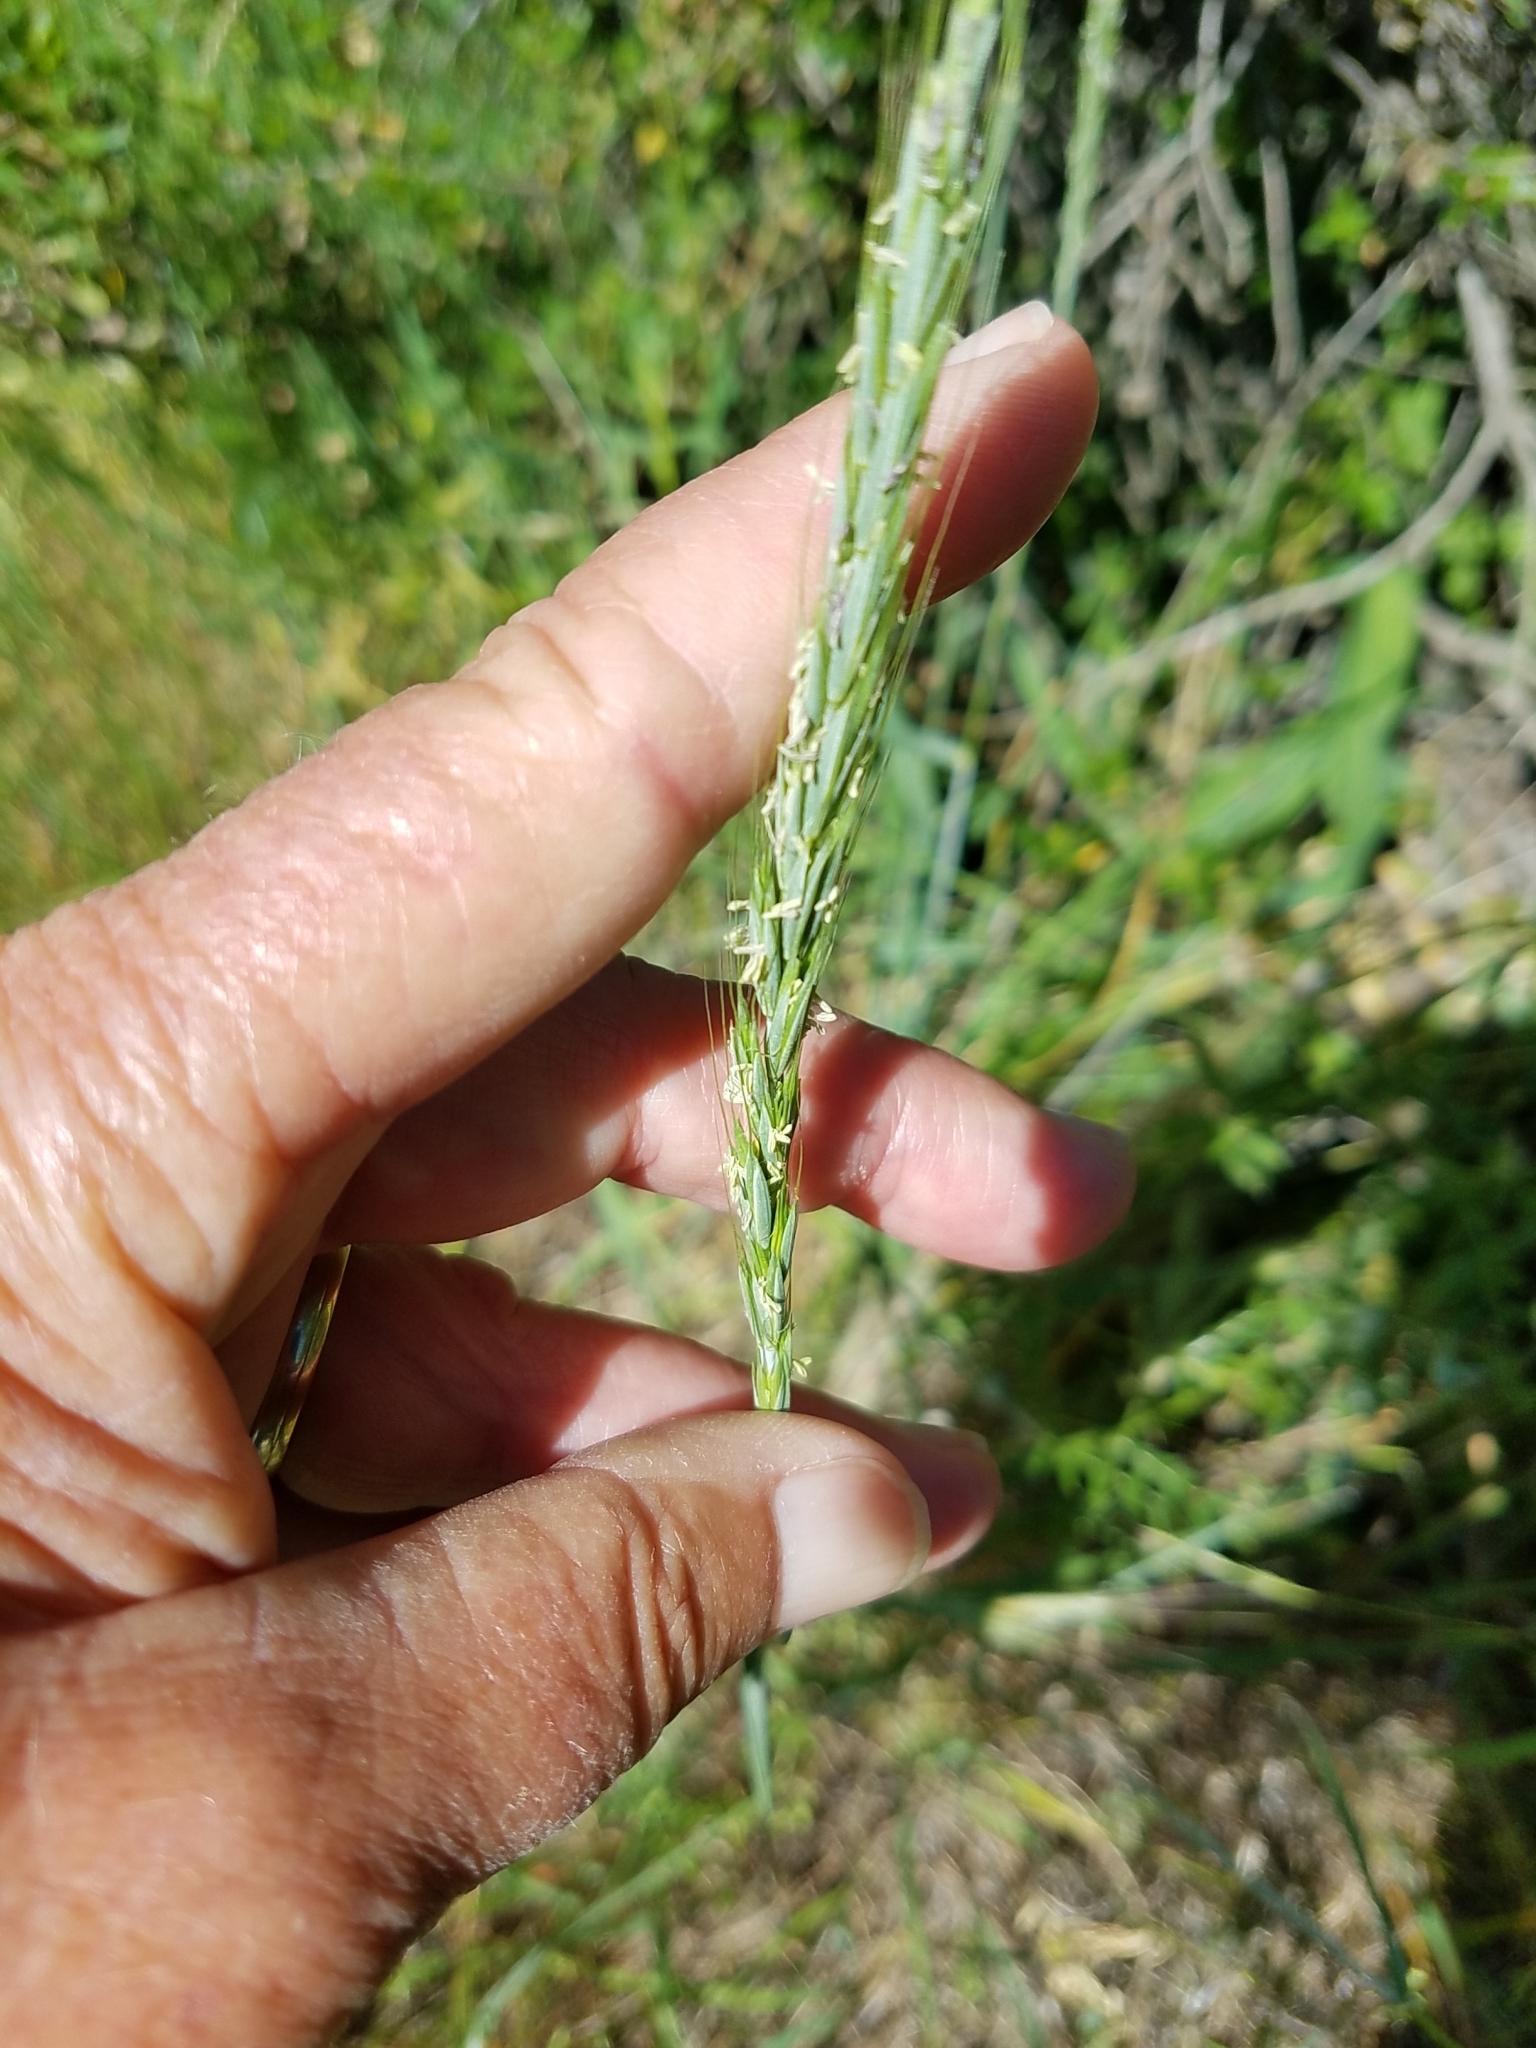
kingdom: Plantae
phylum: Tracheophyta
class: Liliopsida
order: Poales
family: Poaceae
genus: Elymus
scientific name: Elymus glaucus
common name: Blue wild rye
